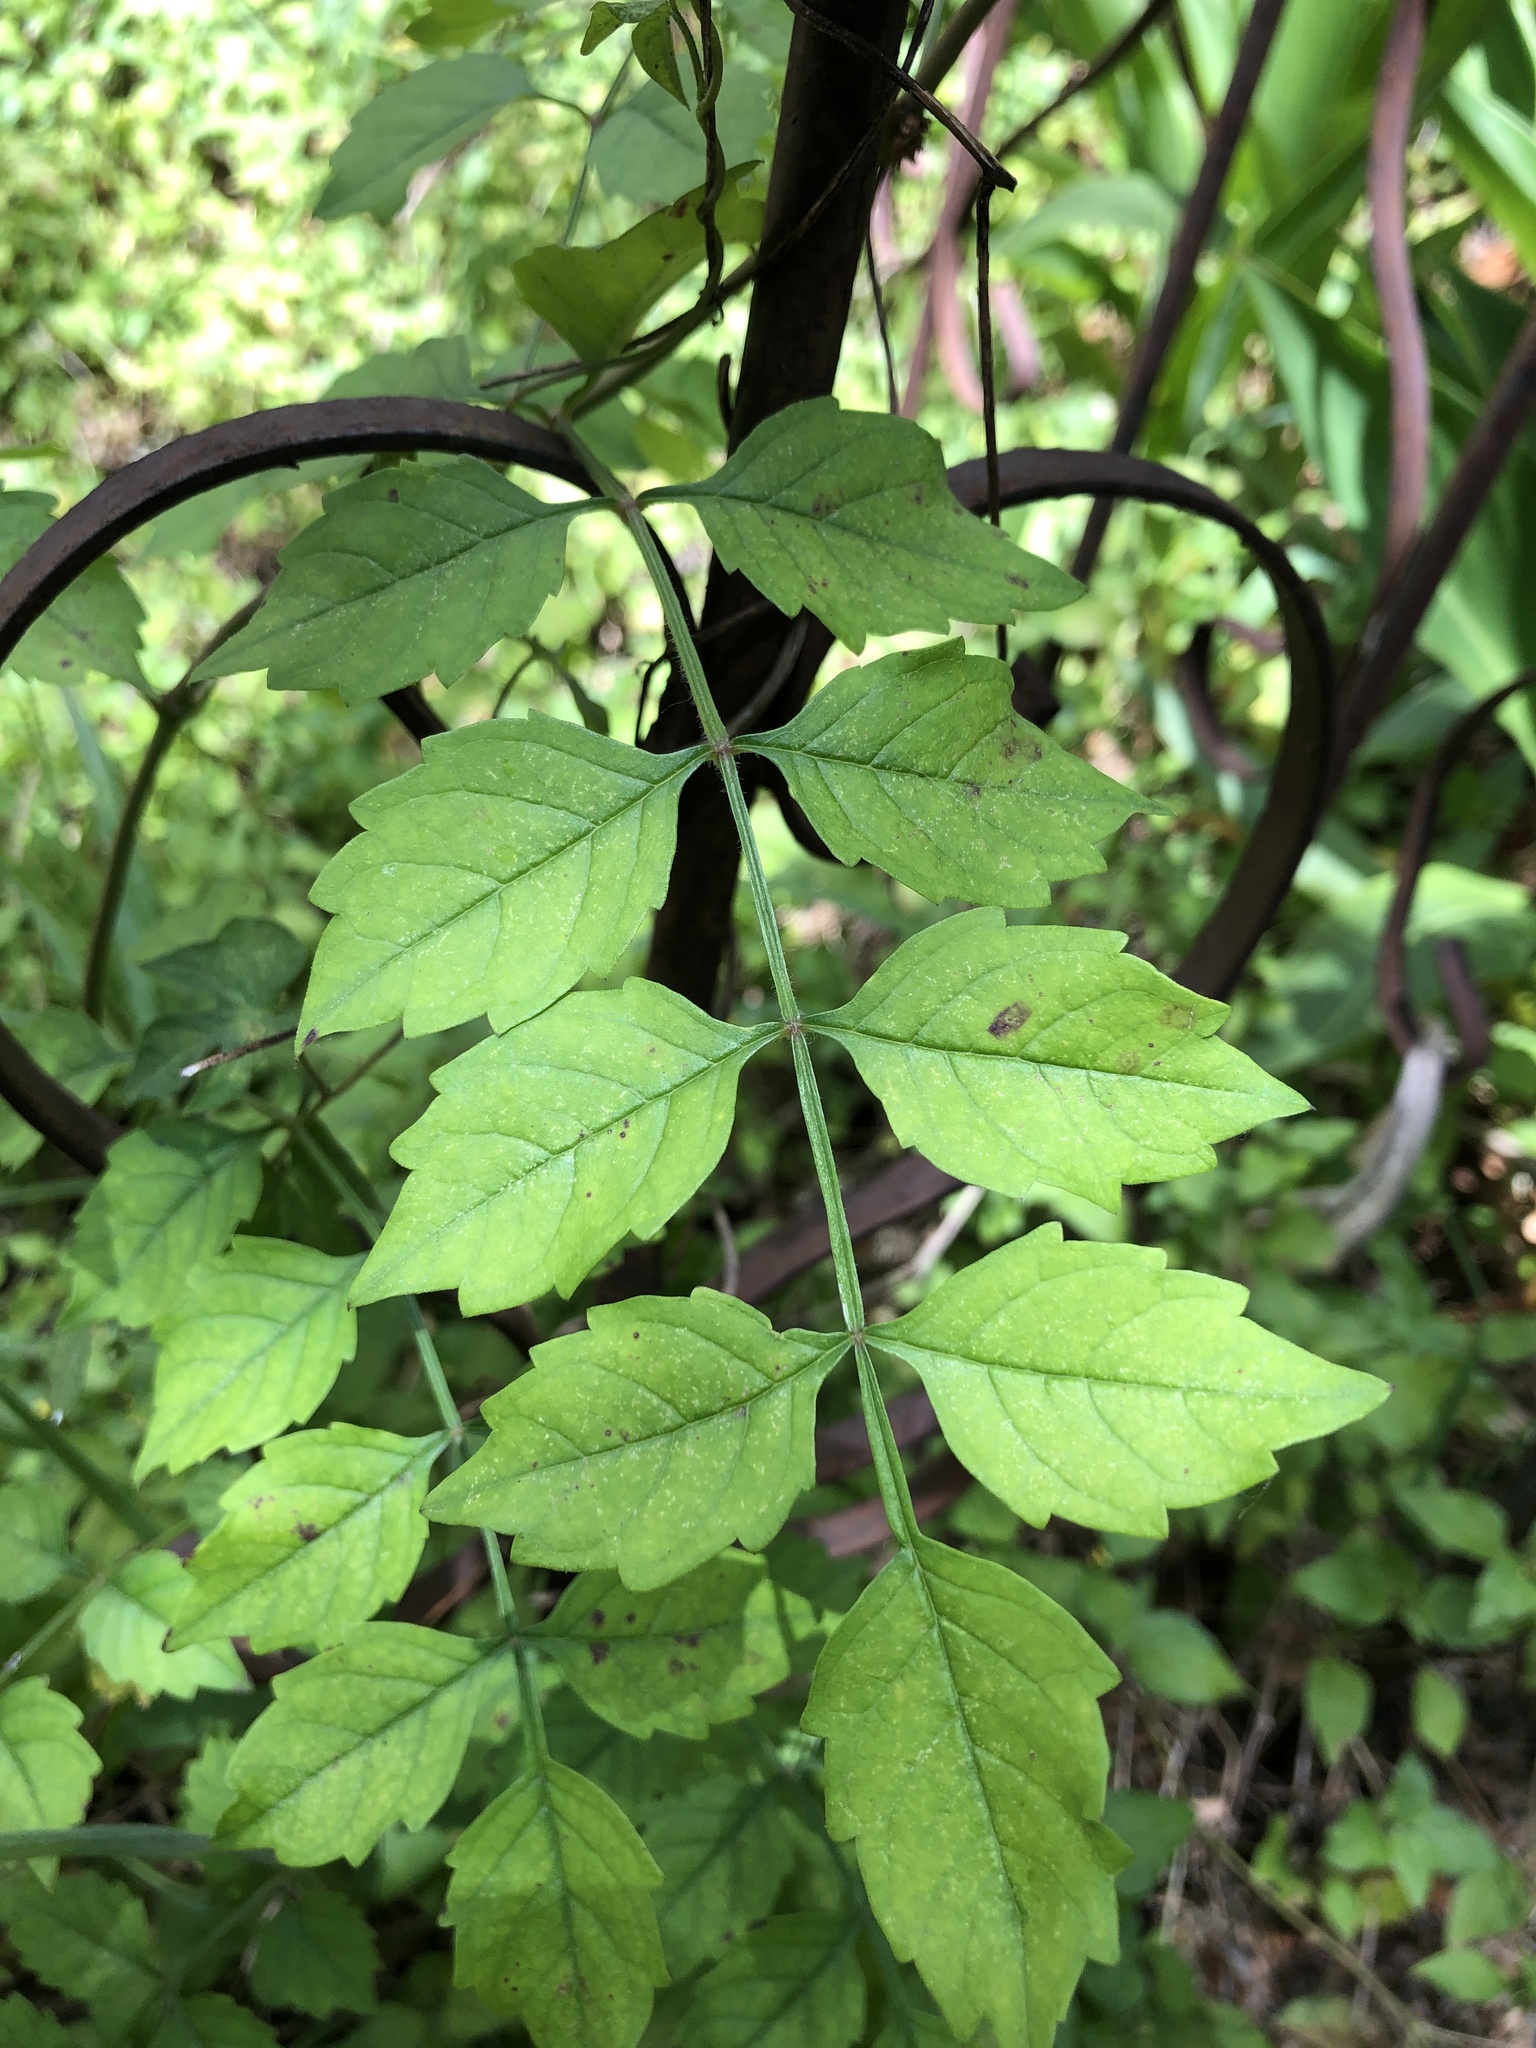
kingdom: Plantae
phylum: Tracheophyta
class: Magnoliopsida
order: Lamiales
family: Bignoniaceae
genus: Campsis
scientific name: Campsis radicans
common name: Trumpet-creeper
